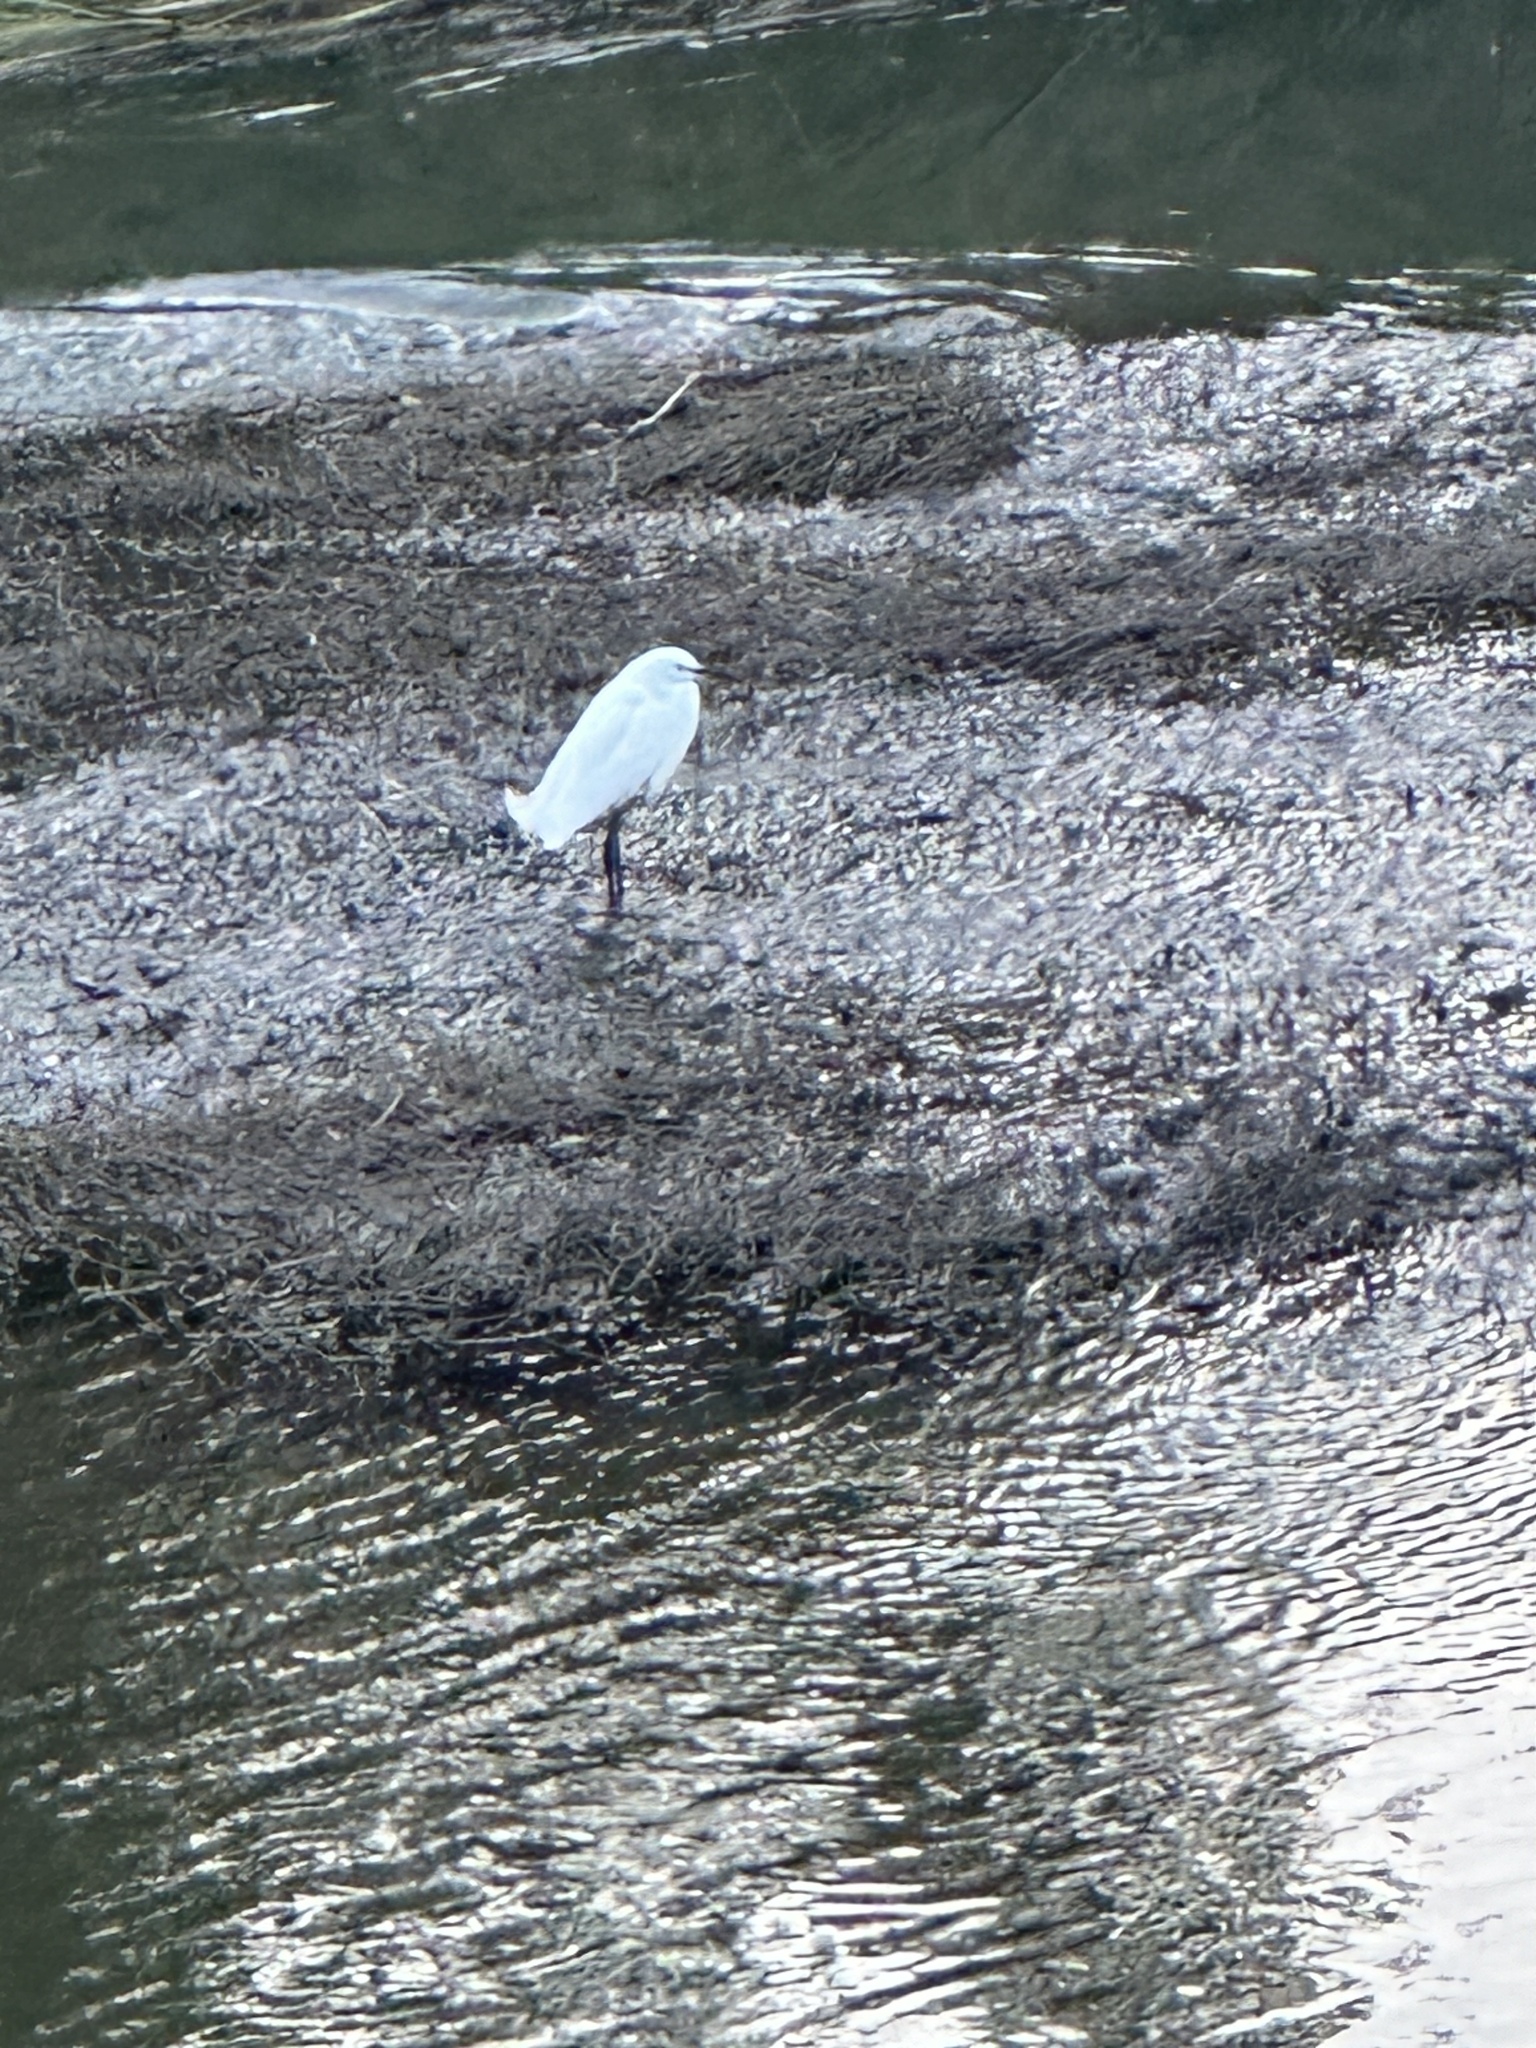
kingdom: Animalia
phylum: Chordata
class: Aves
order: Pelecaniformes
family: Ardeidae
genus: Egretta
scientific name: Egretta thula
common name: Snowy egret
